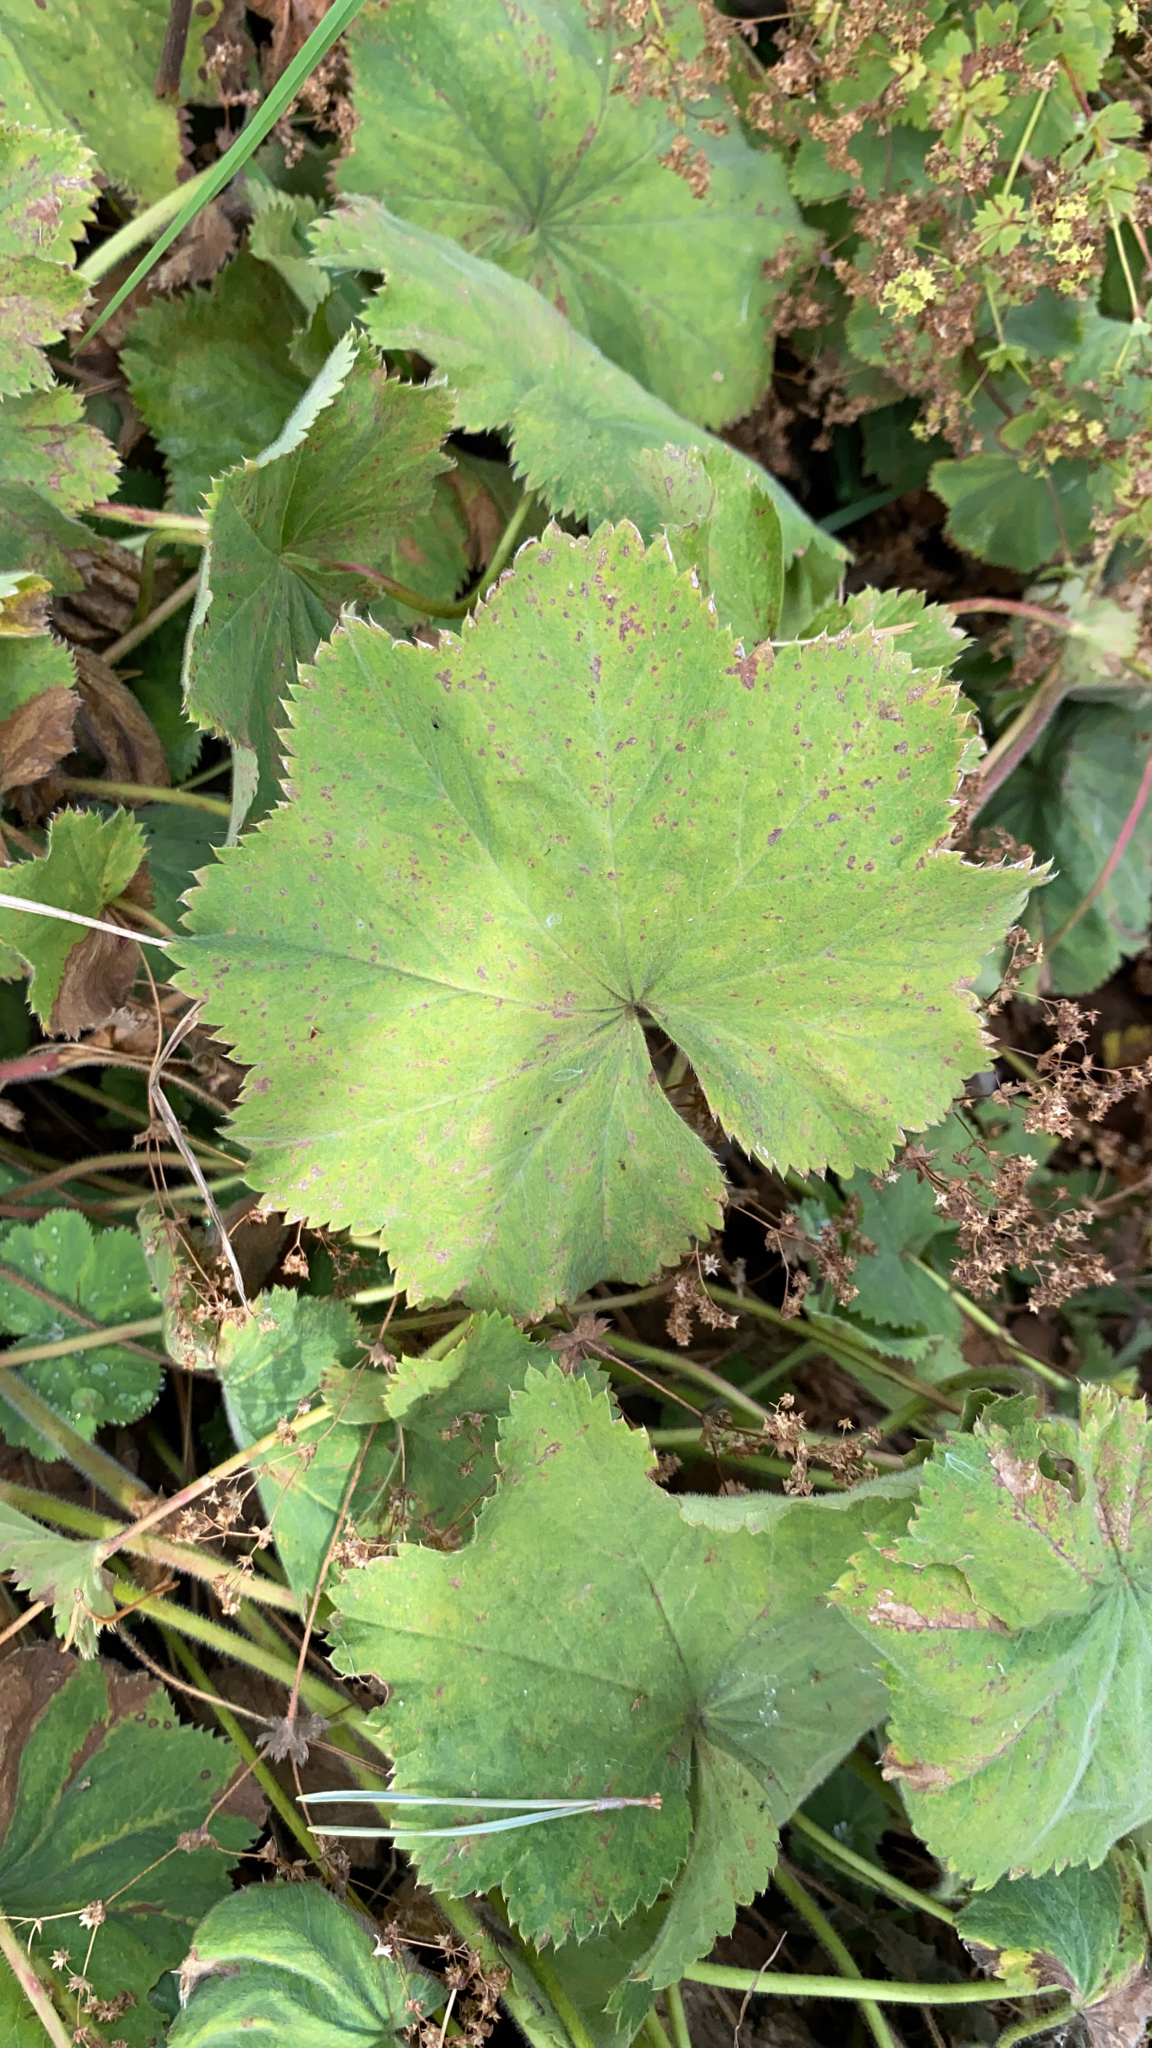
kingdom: Plantae
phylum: Tracheophyta
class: Magnoliopsida
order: Rosales
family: Rosaceae
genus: Alchemilla
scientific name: Alchemilla mollis
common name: Lady's-mantle
